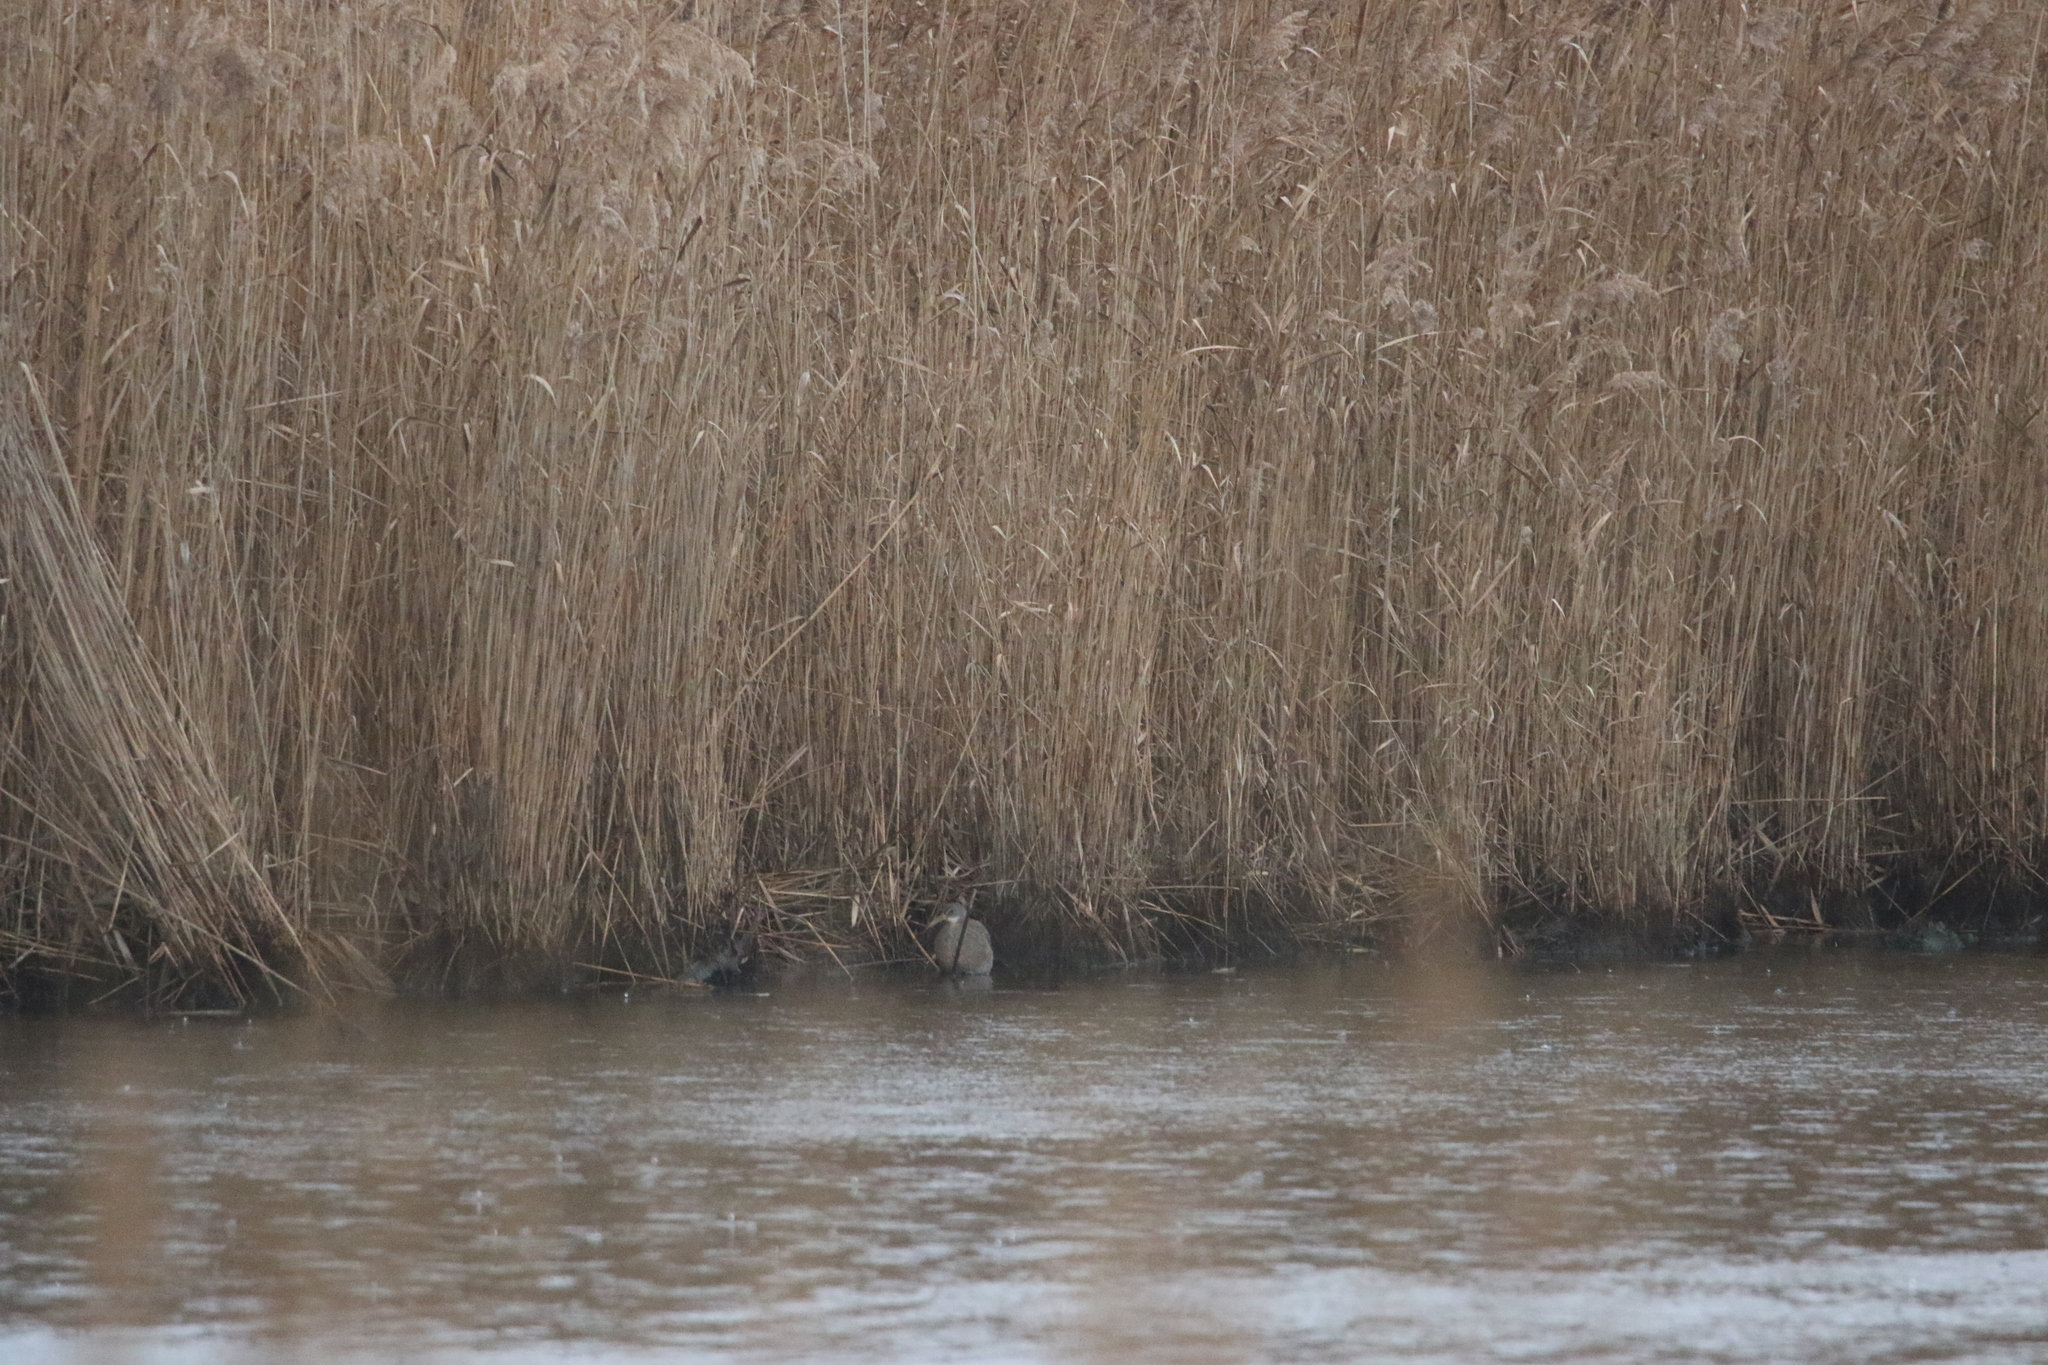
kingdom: Animalia
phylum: Chordata
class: Aves
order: Gruiformes
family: Rallidae
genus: Rallus
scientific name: Rallus crepitans
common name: Clapper rail
